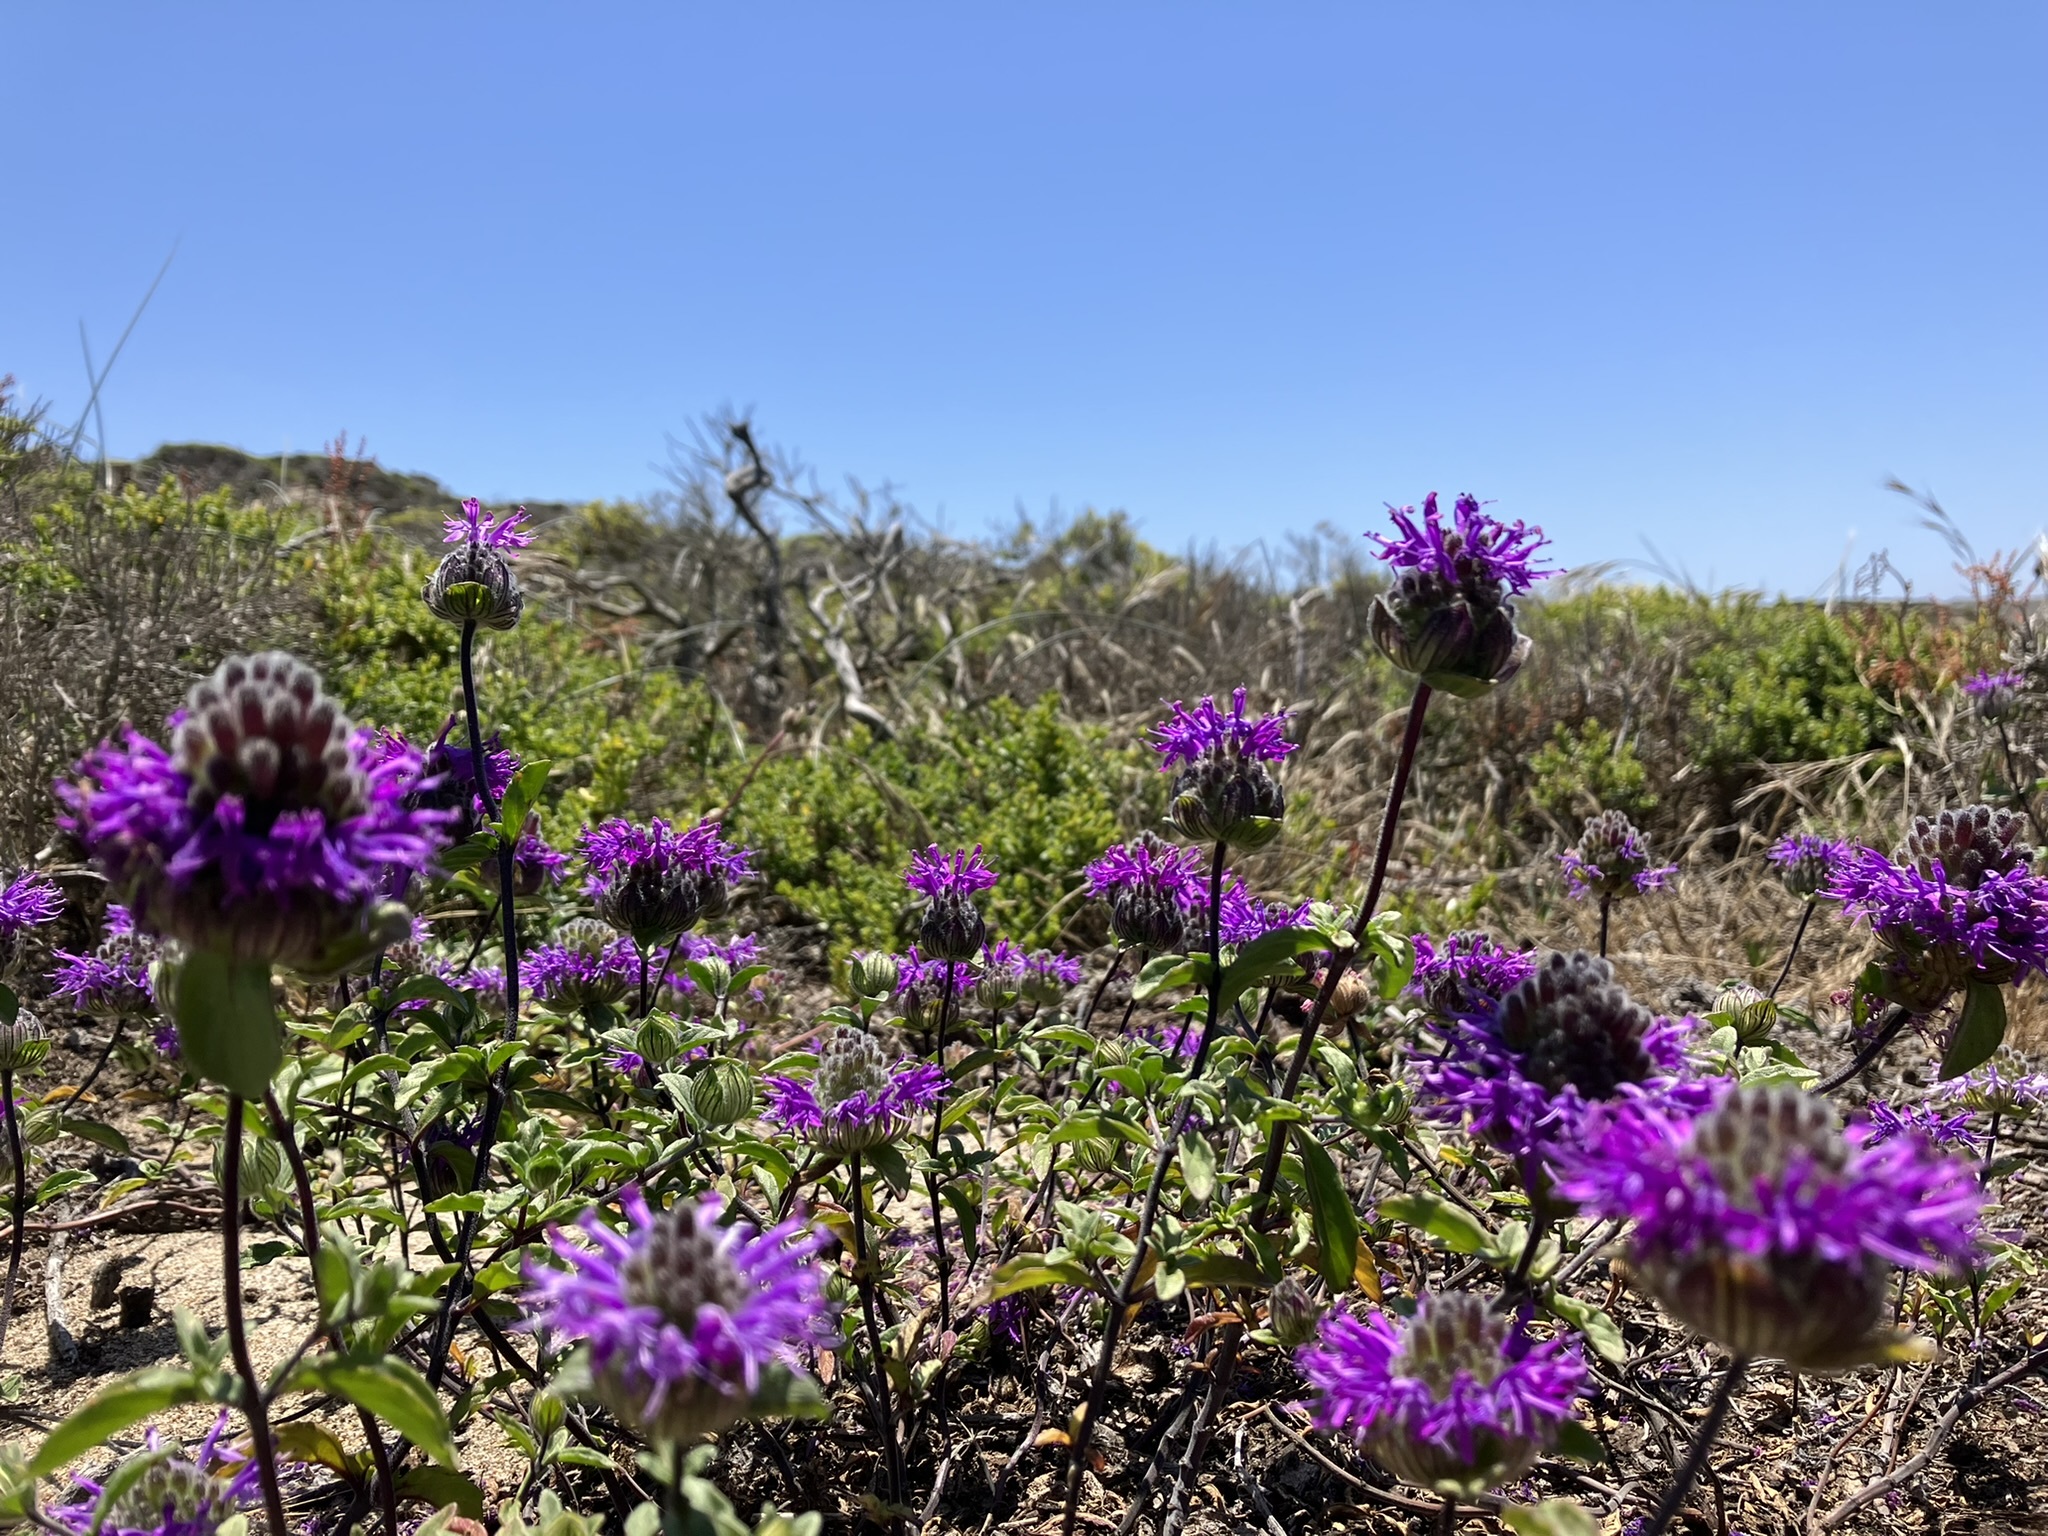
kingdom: Plantae
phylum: Tracheophyta
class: Magnoliopsida
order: Lamiales
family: Lamiaceae
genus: Monardella
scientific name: Monardella sinuata
